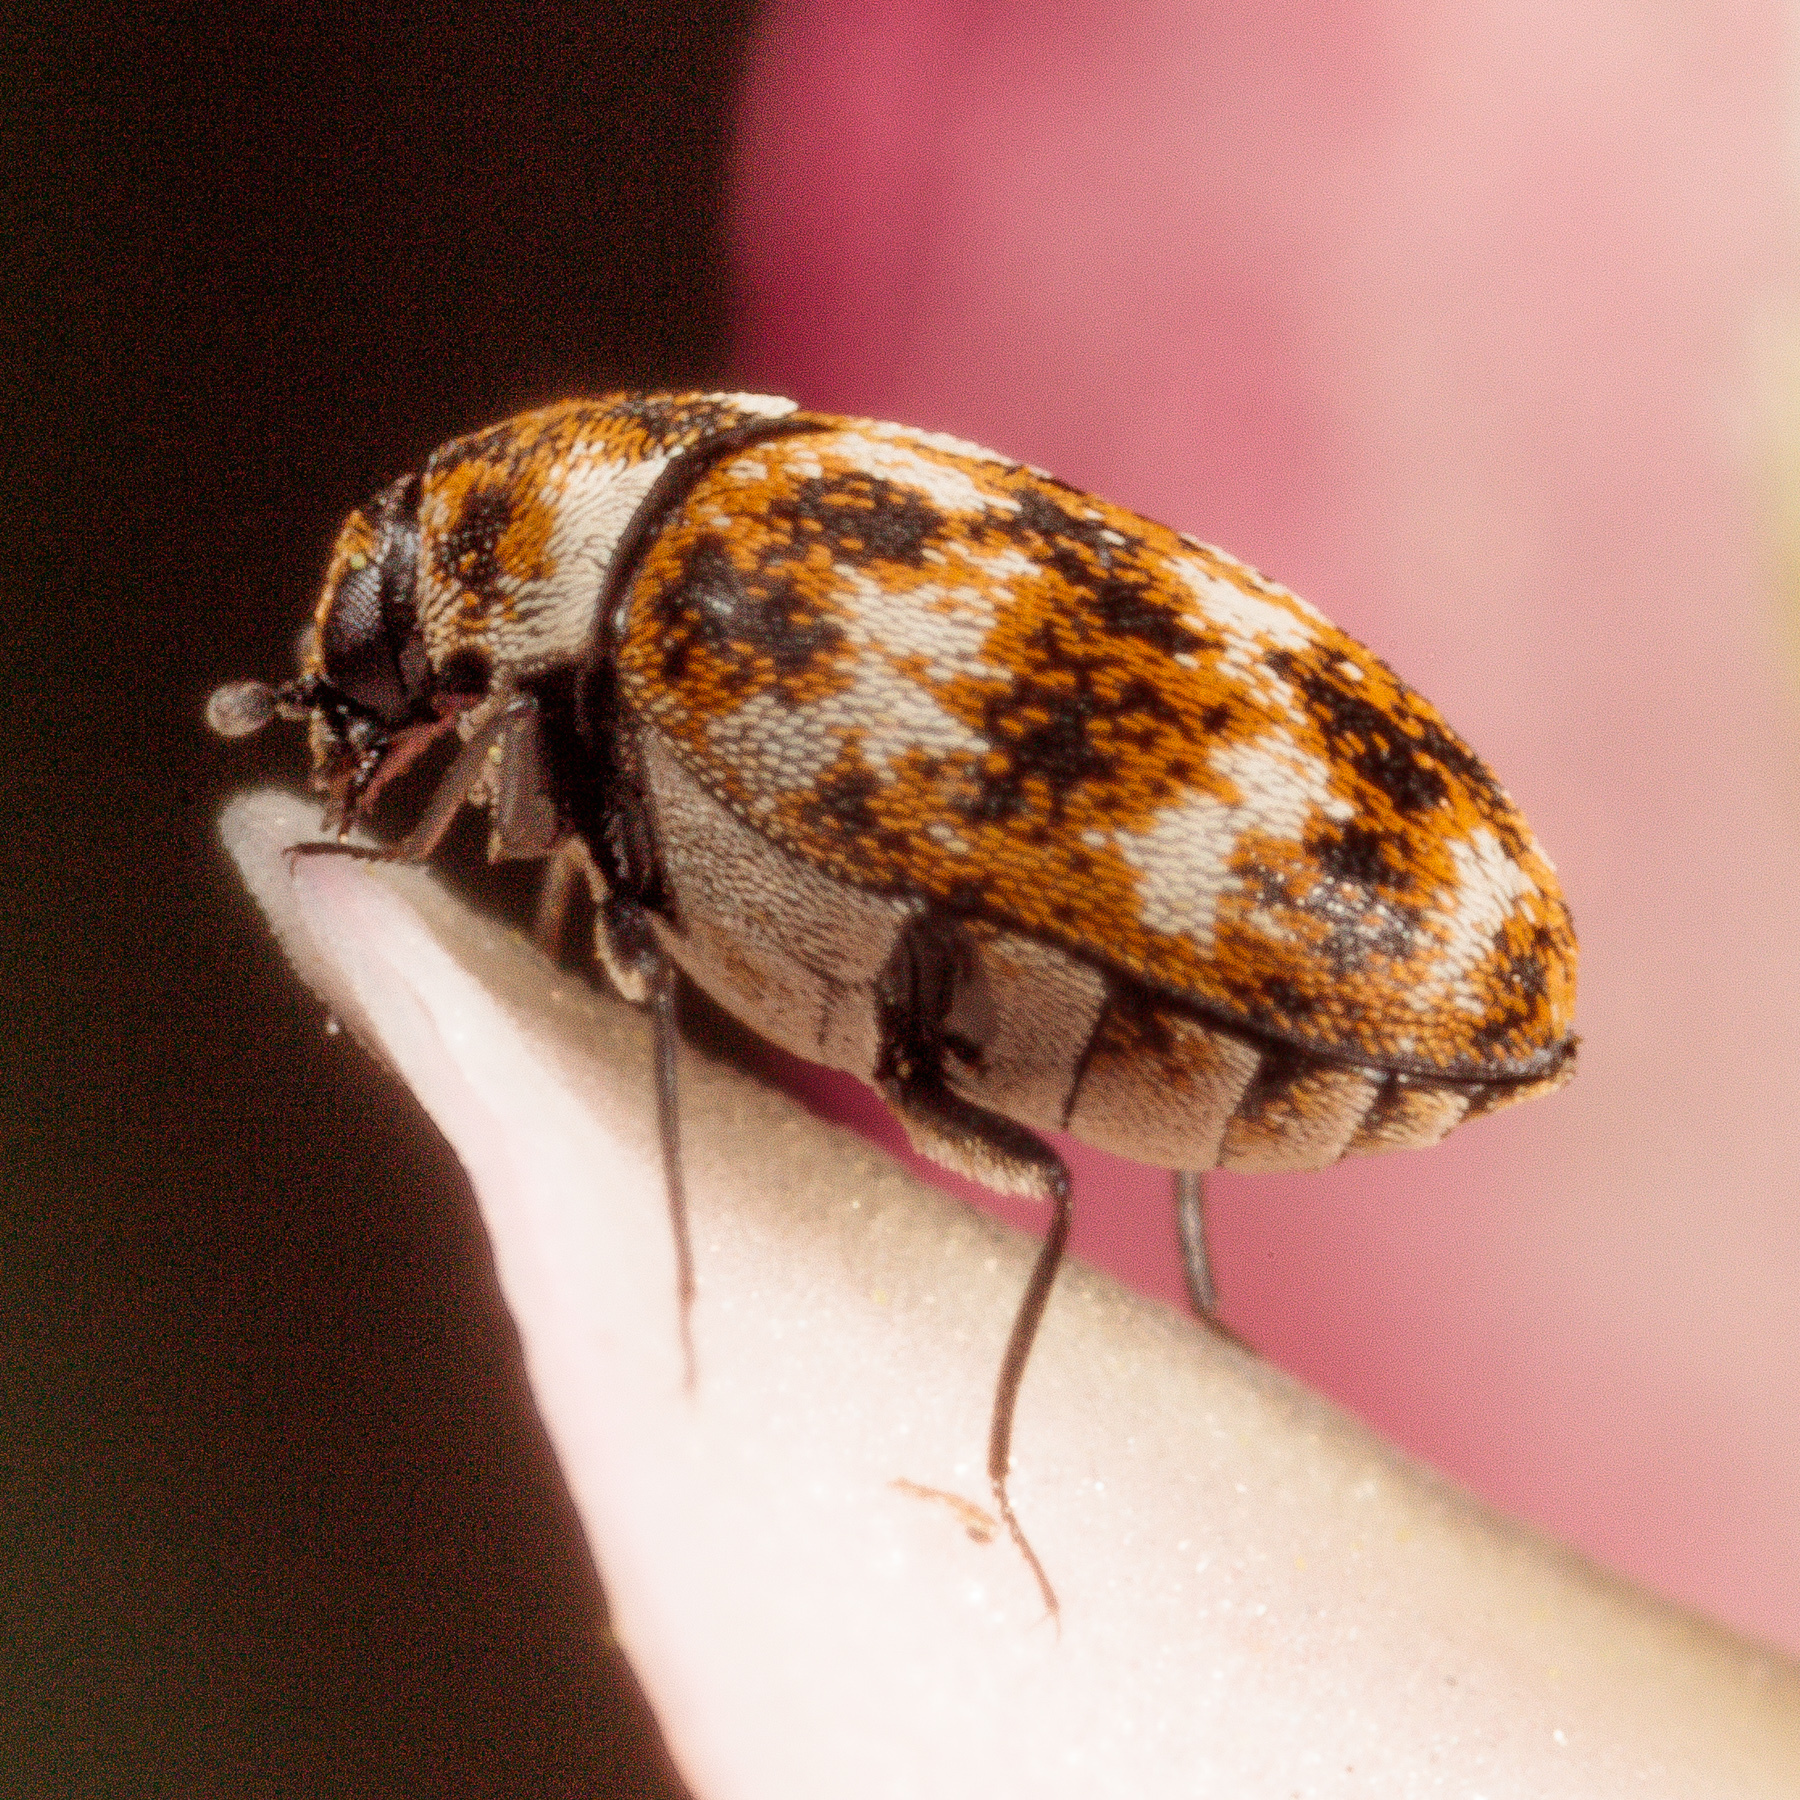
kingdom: Animalia
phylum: Arthropoda
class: Insecta
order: Coleoptera
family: Dermestidae
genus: Anthrenus
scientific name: Anthrenus verbasci
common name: Varied carpet beetle
